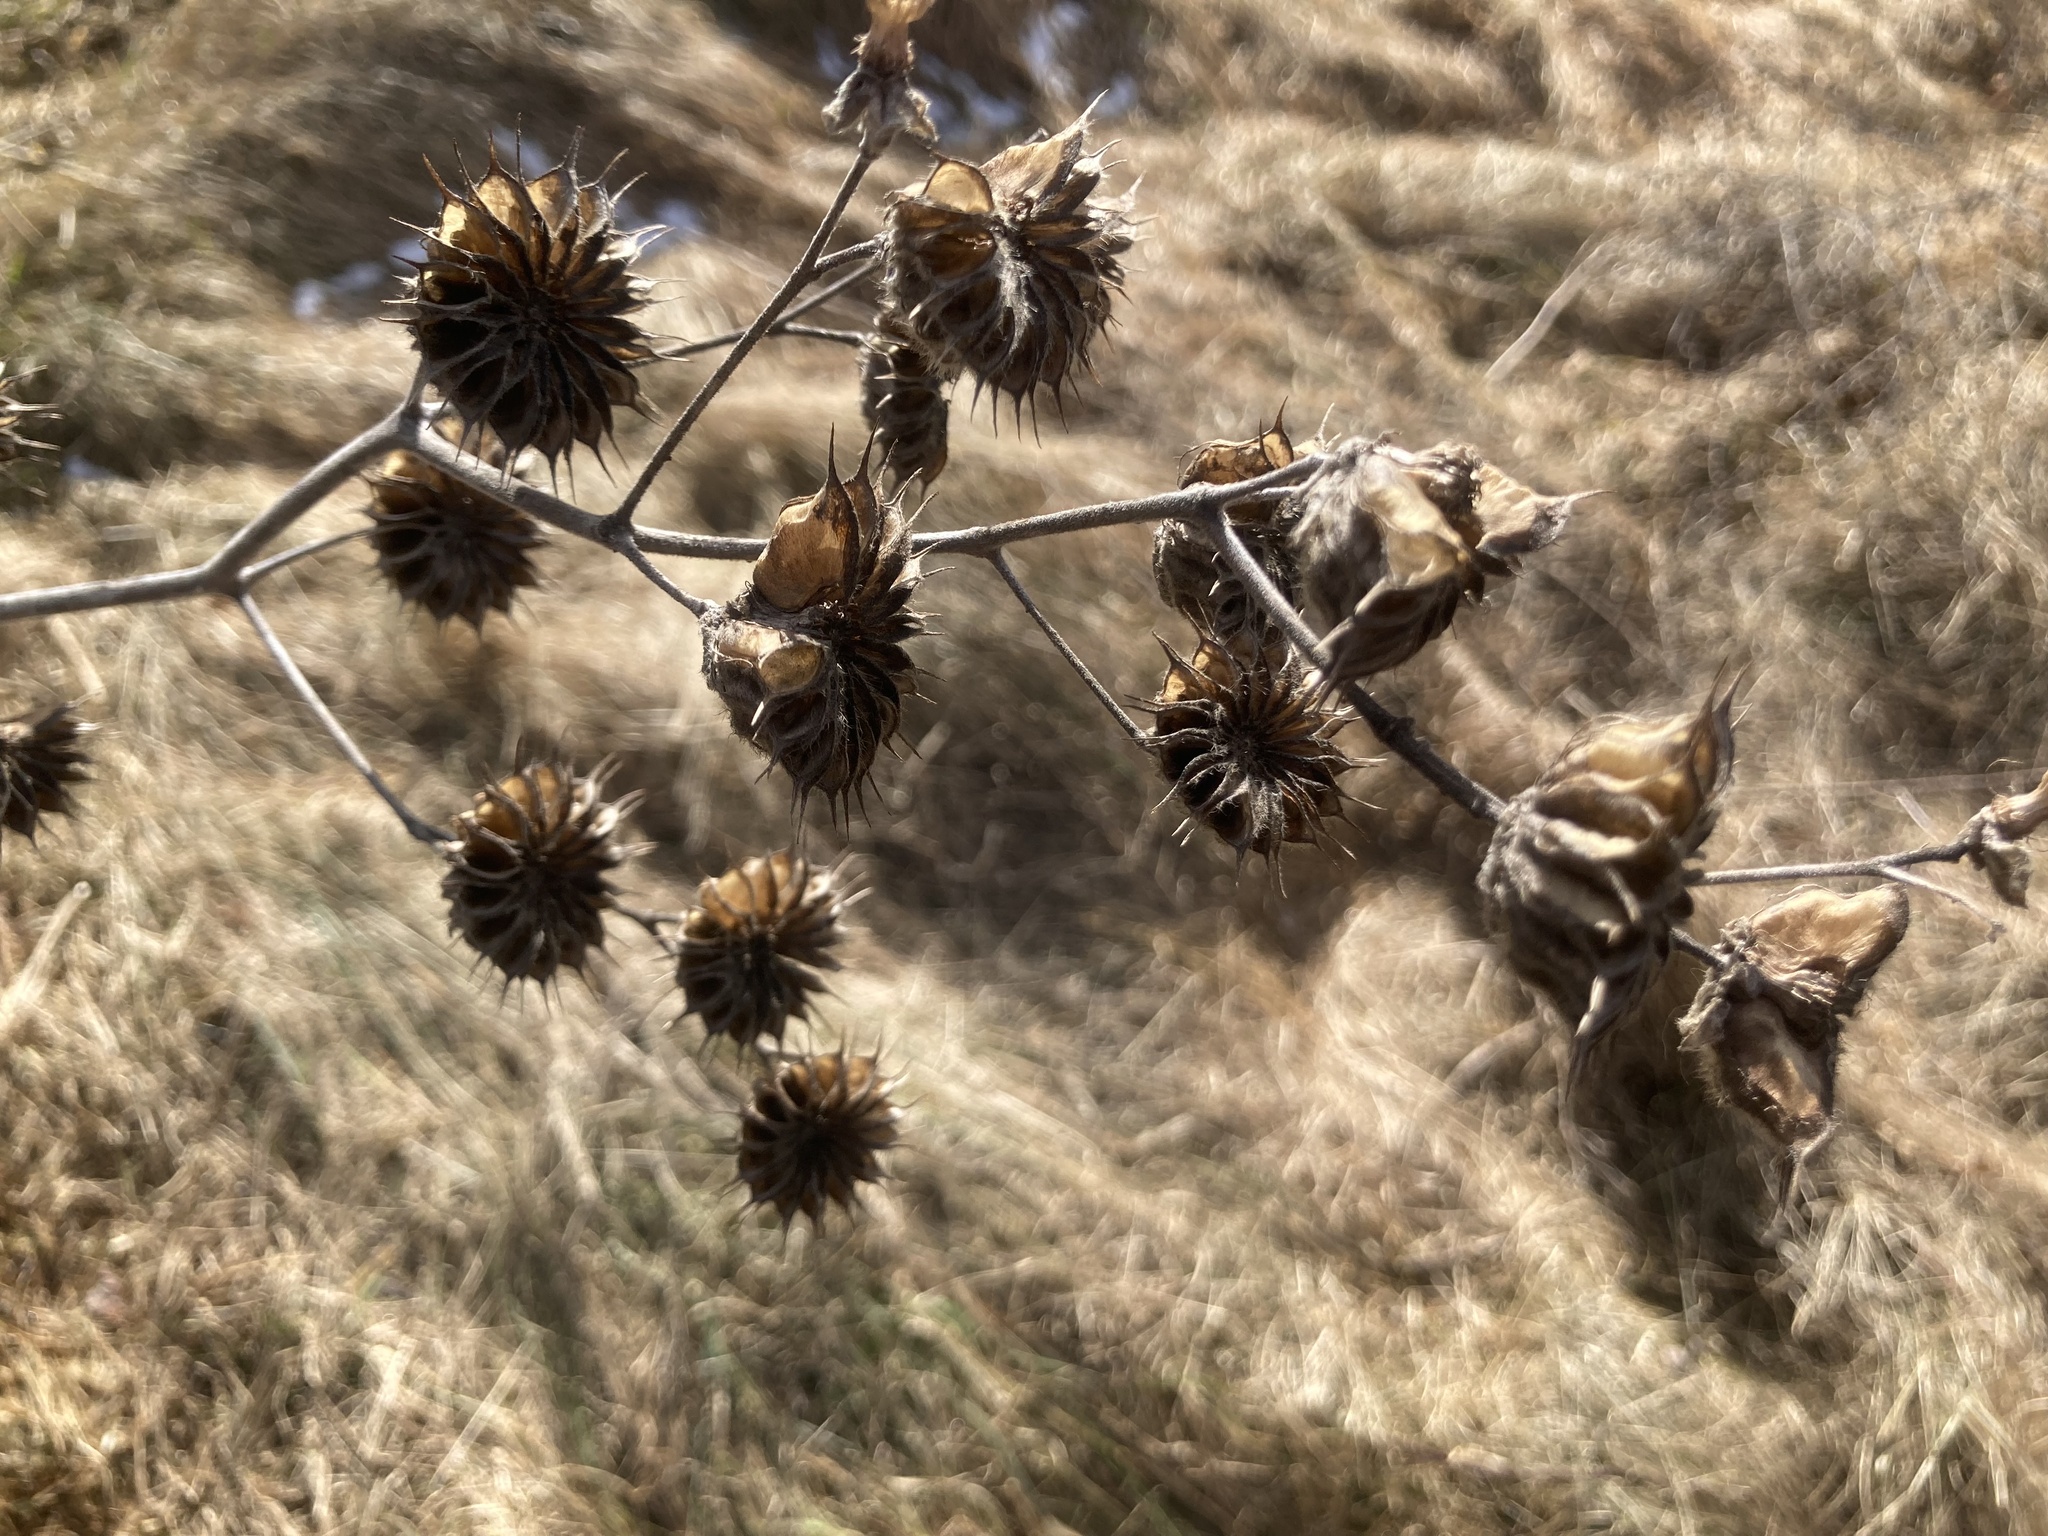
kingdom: Plantae
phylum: Tracheophyta
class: Magnoliopsida
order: Malvales
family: Malvaceae
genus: Abutilon
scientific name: Abutilon theophrasti
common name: Velvetleaf
